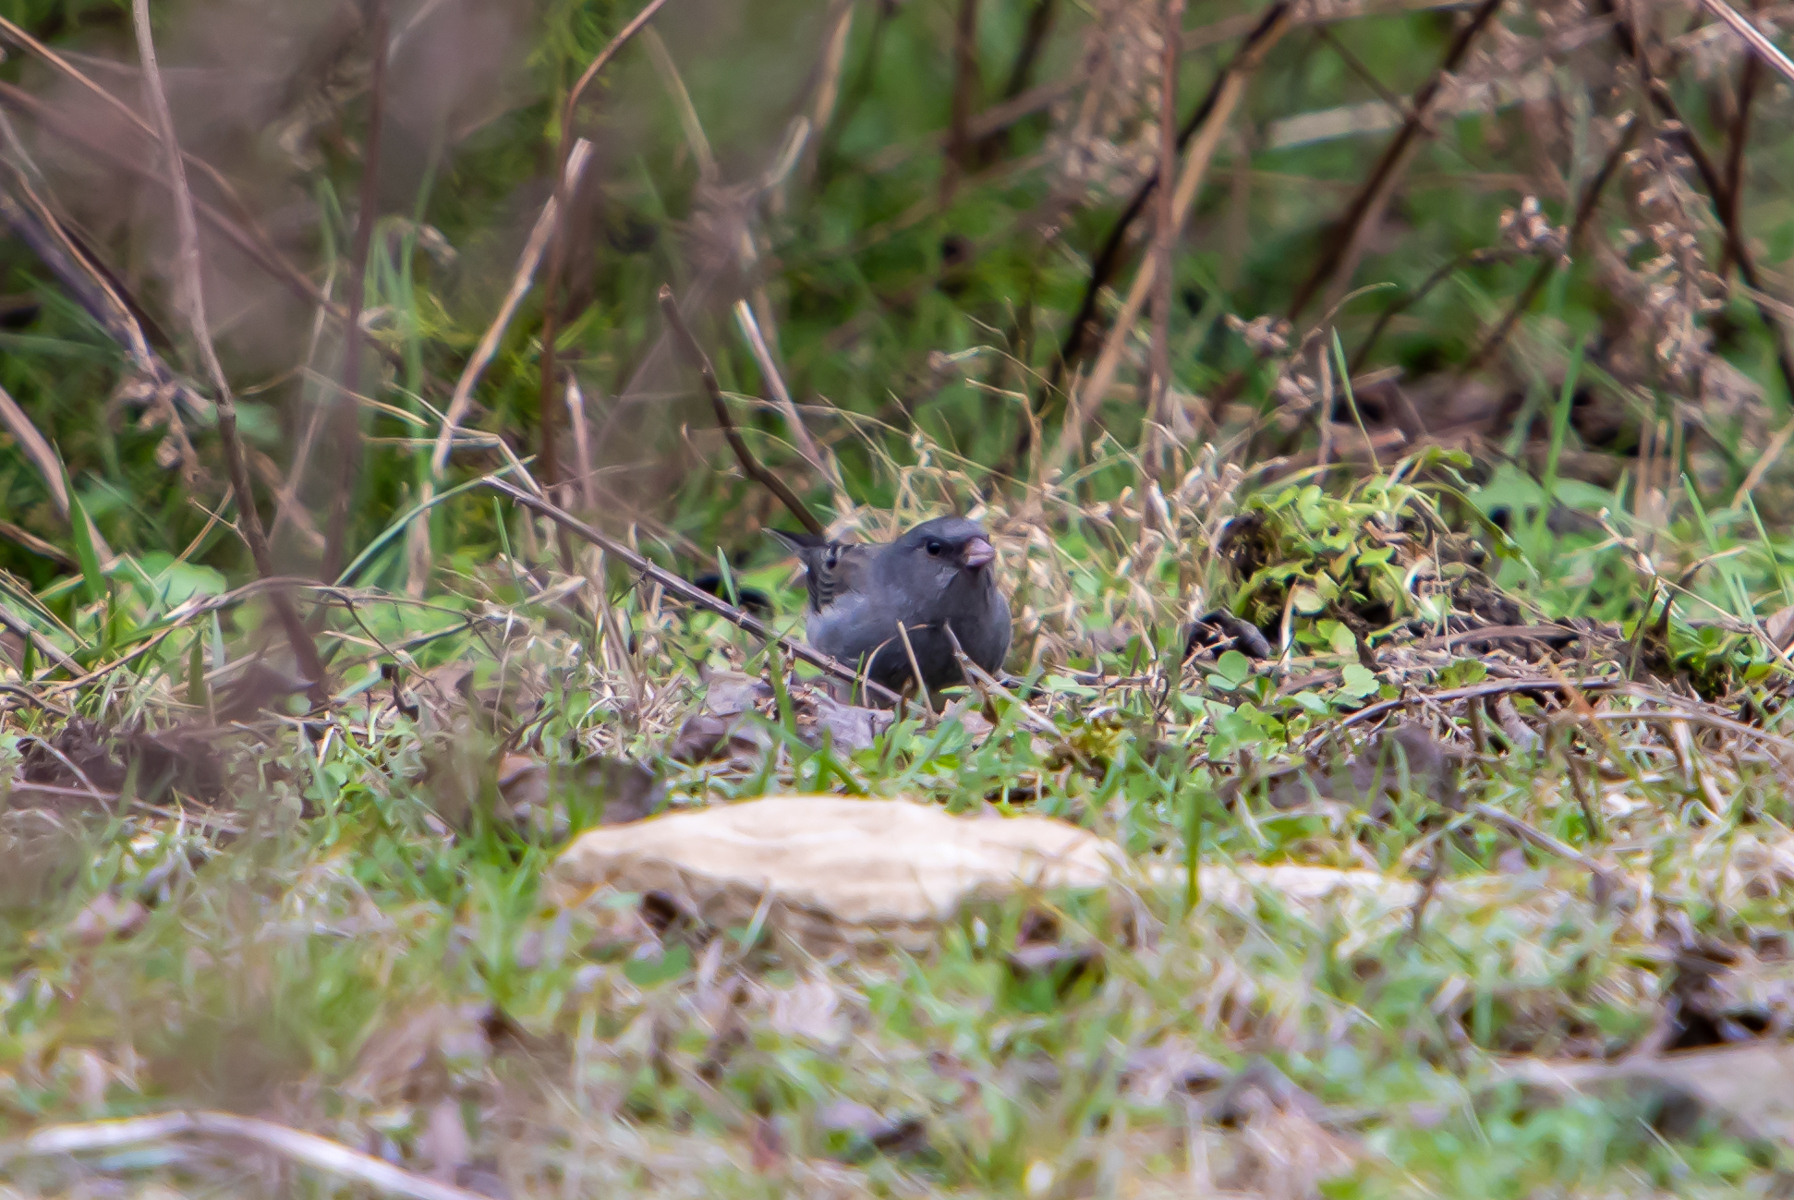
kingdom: Animalia
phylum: Chordata
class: Aves
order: Passeriformes
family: Passerellidae
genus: Junco
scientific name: Junco hyemalis
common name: Dark-eyed junco
